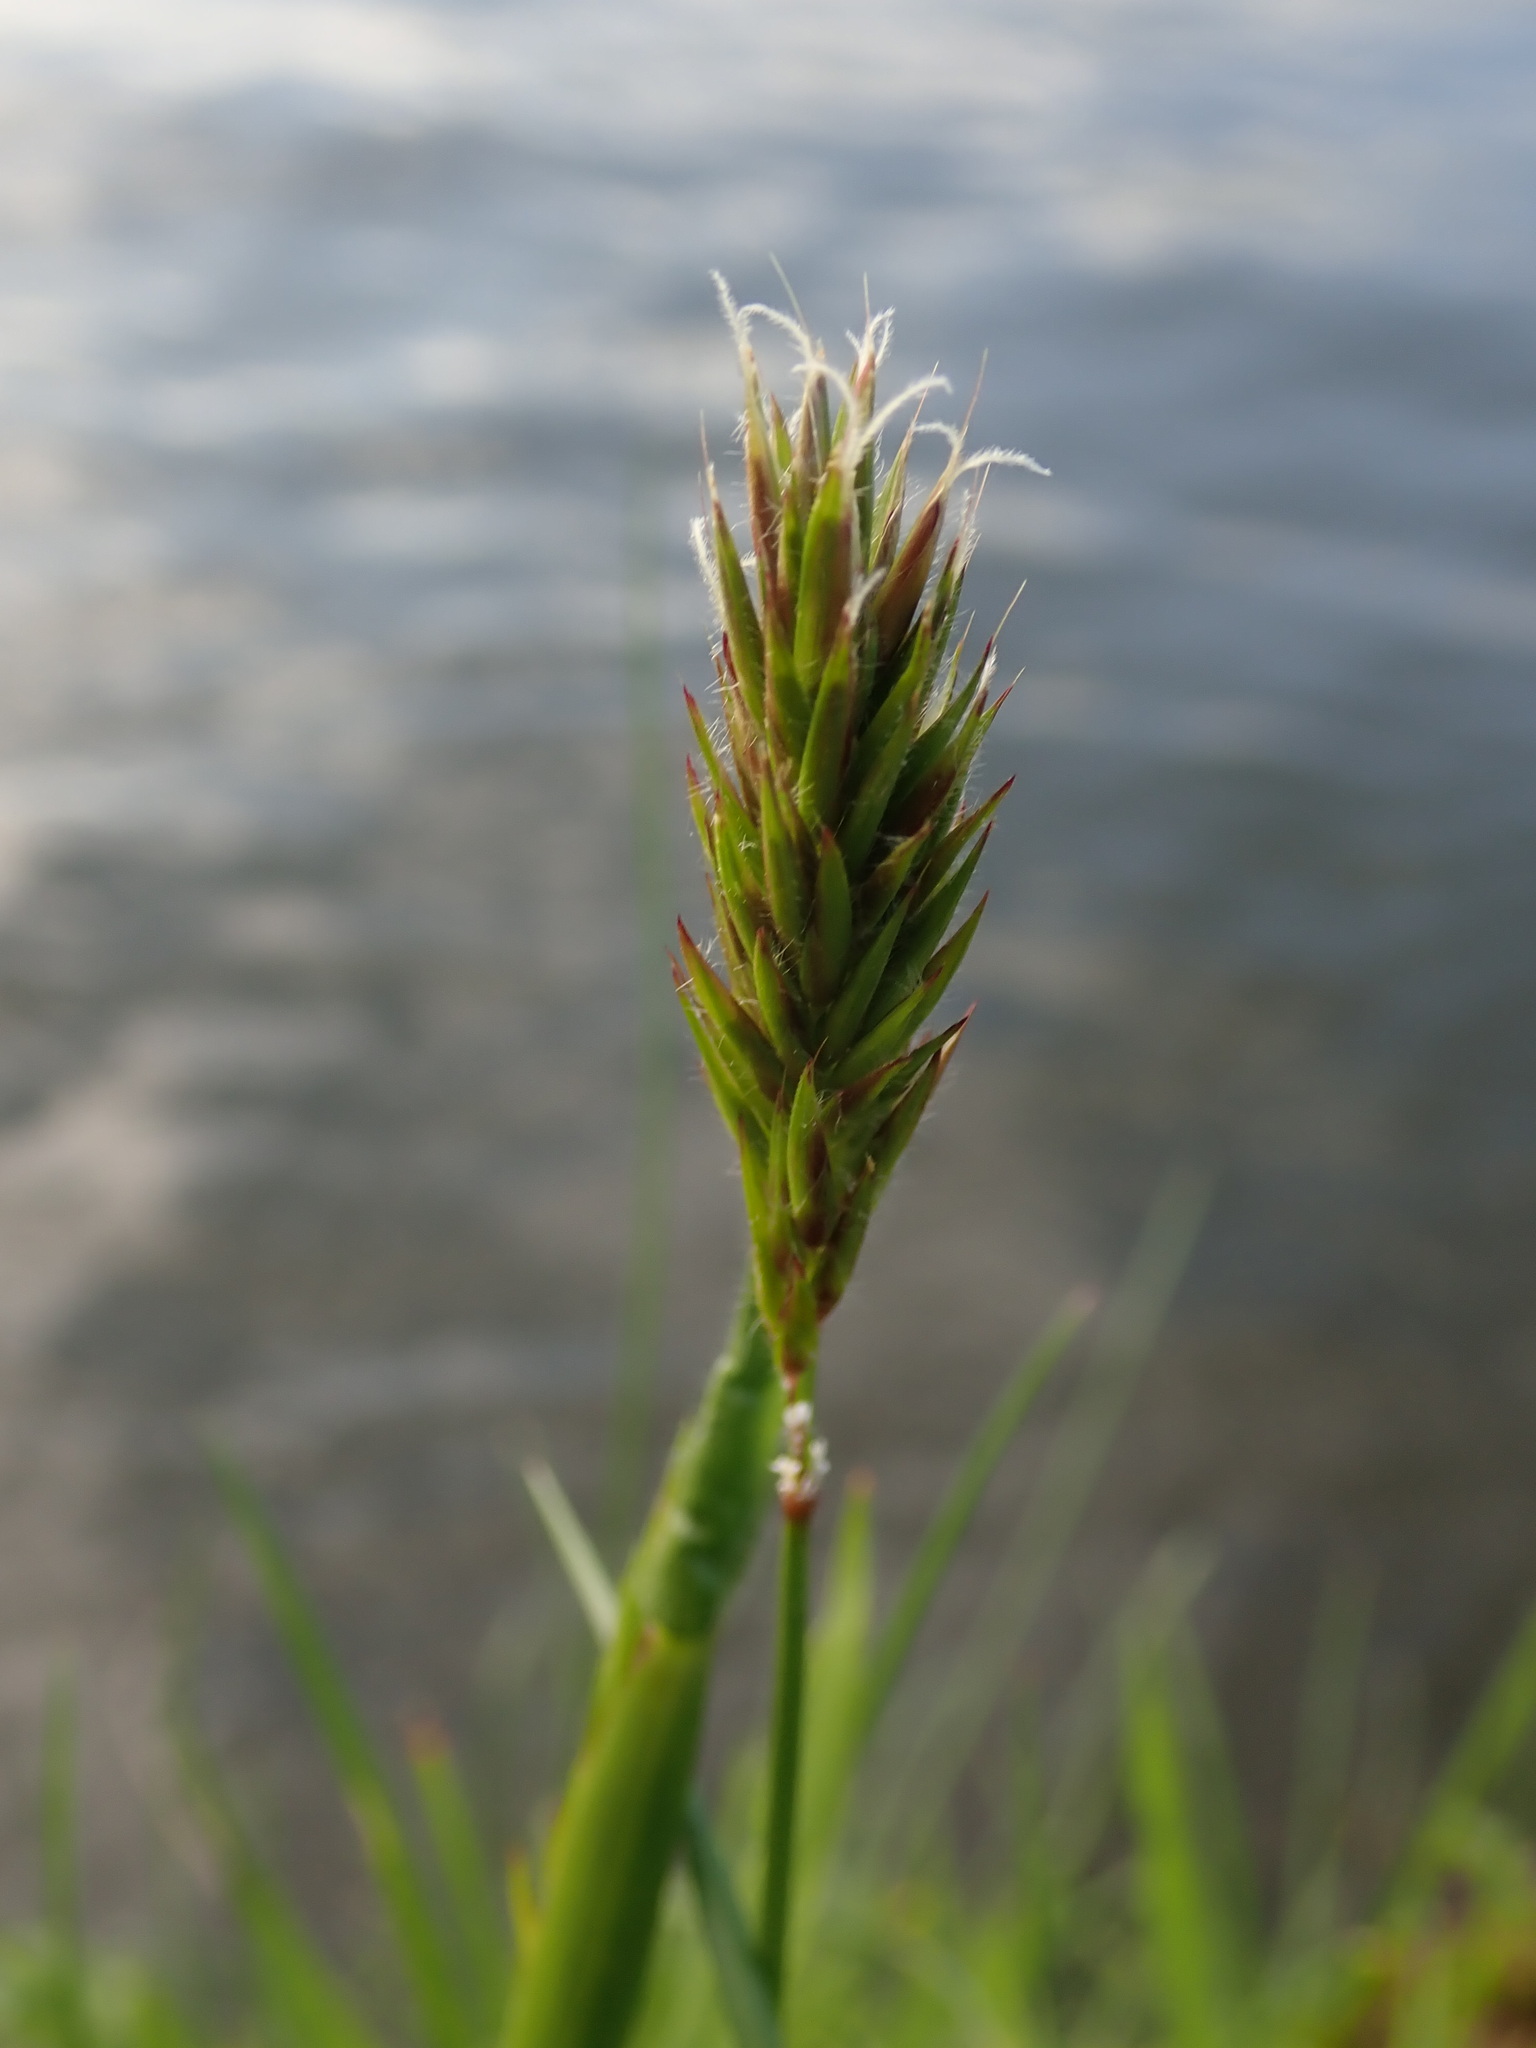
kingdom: Plantae
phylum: Tracheophyta
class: Liliopsida
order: Poales
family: Poaceae
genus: Anthoxanthum
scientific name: Anthoxanthum odoratum
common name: Sweet vernalgrass
